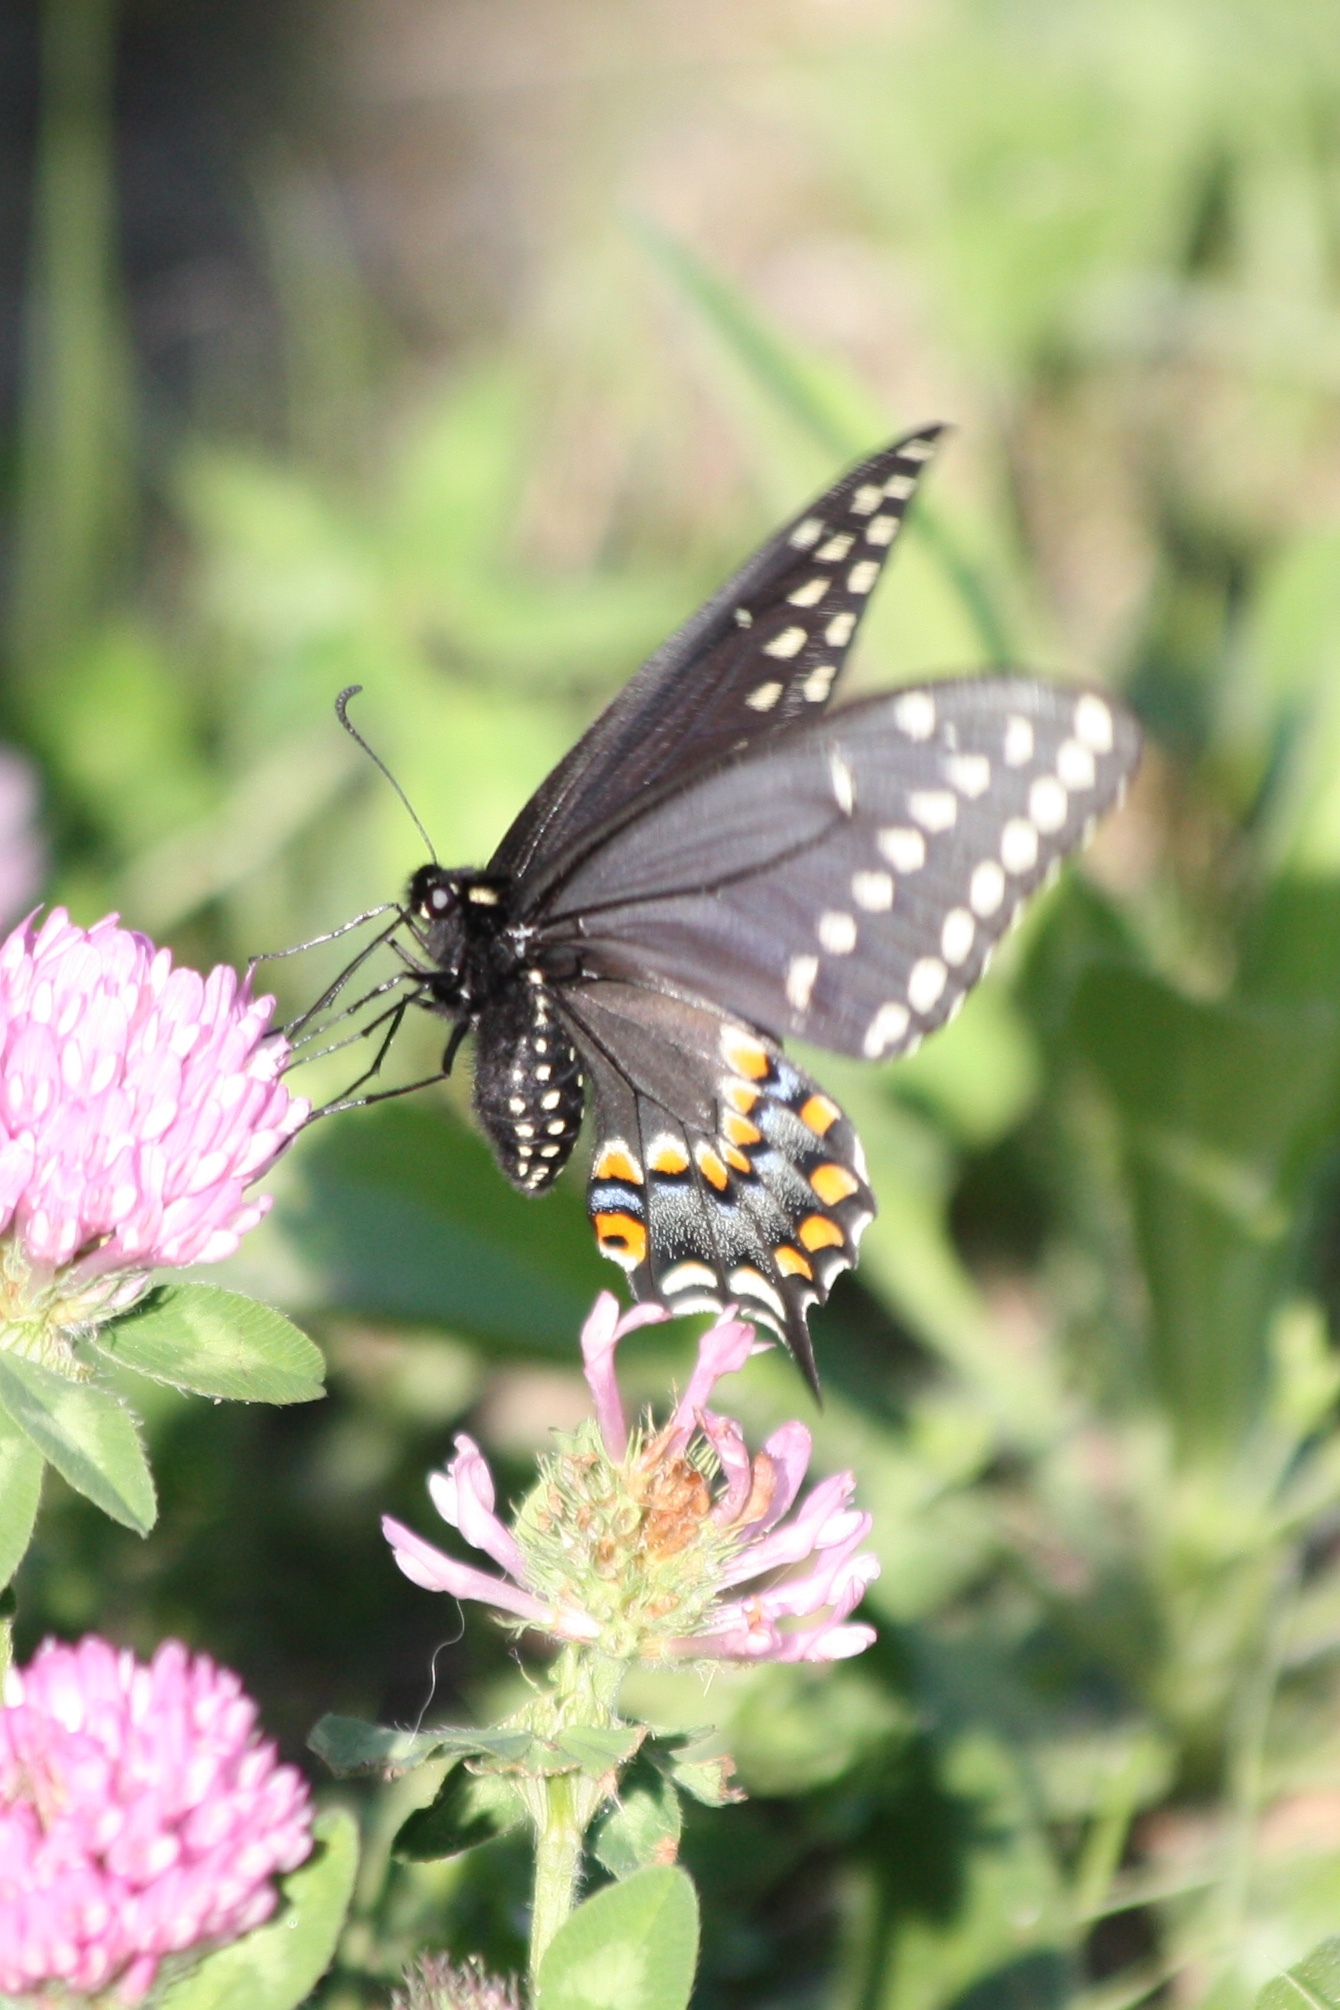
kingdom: Animalia
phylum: Arthropoda
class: Insecta
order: Lepidoptera
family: Papilionidae
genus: Papilio
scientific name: Papilio polyxenes
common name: Black swallowtail
